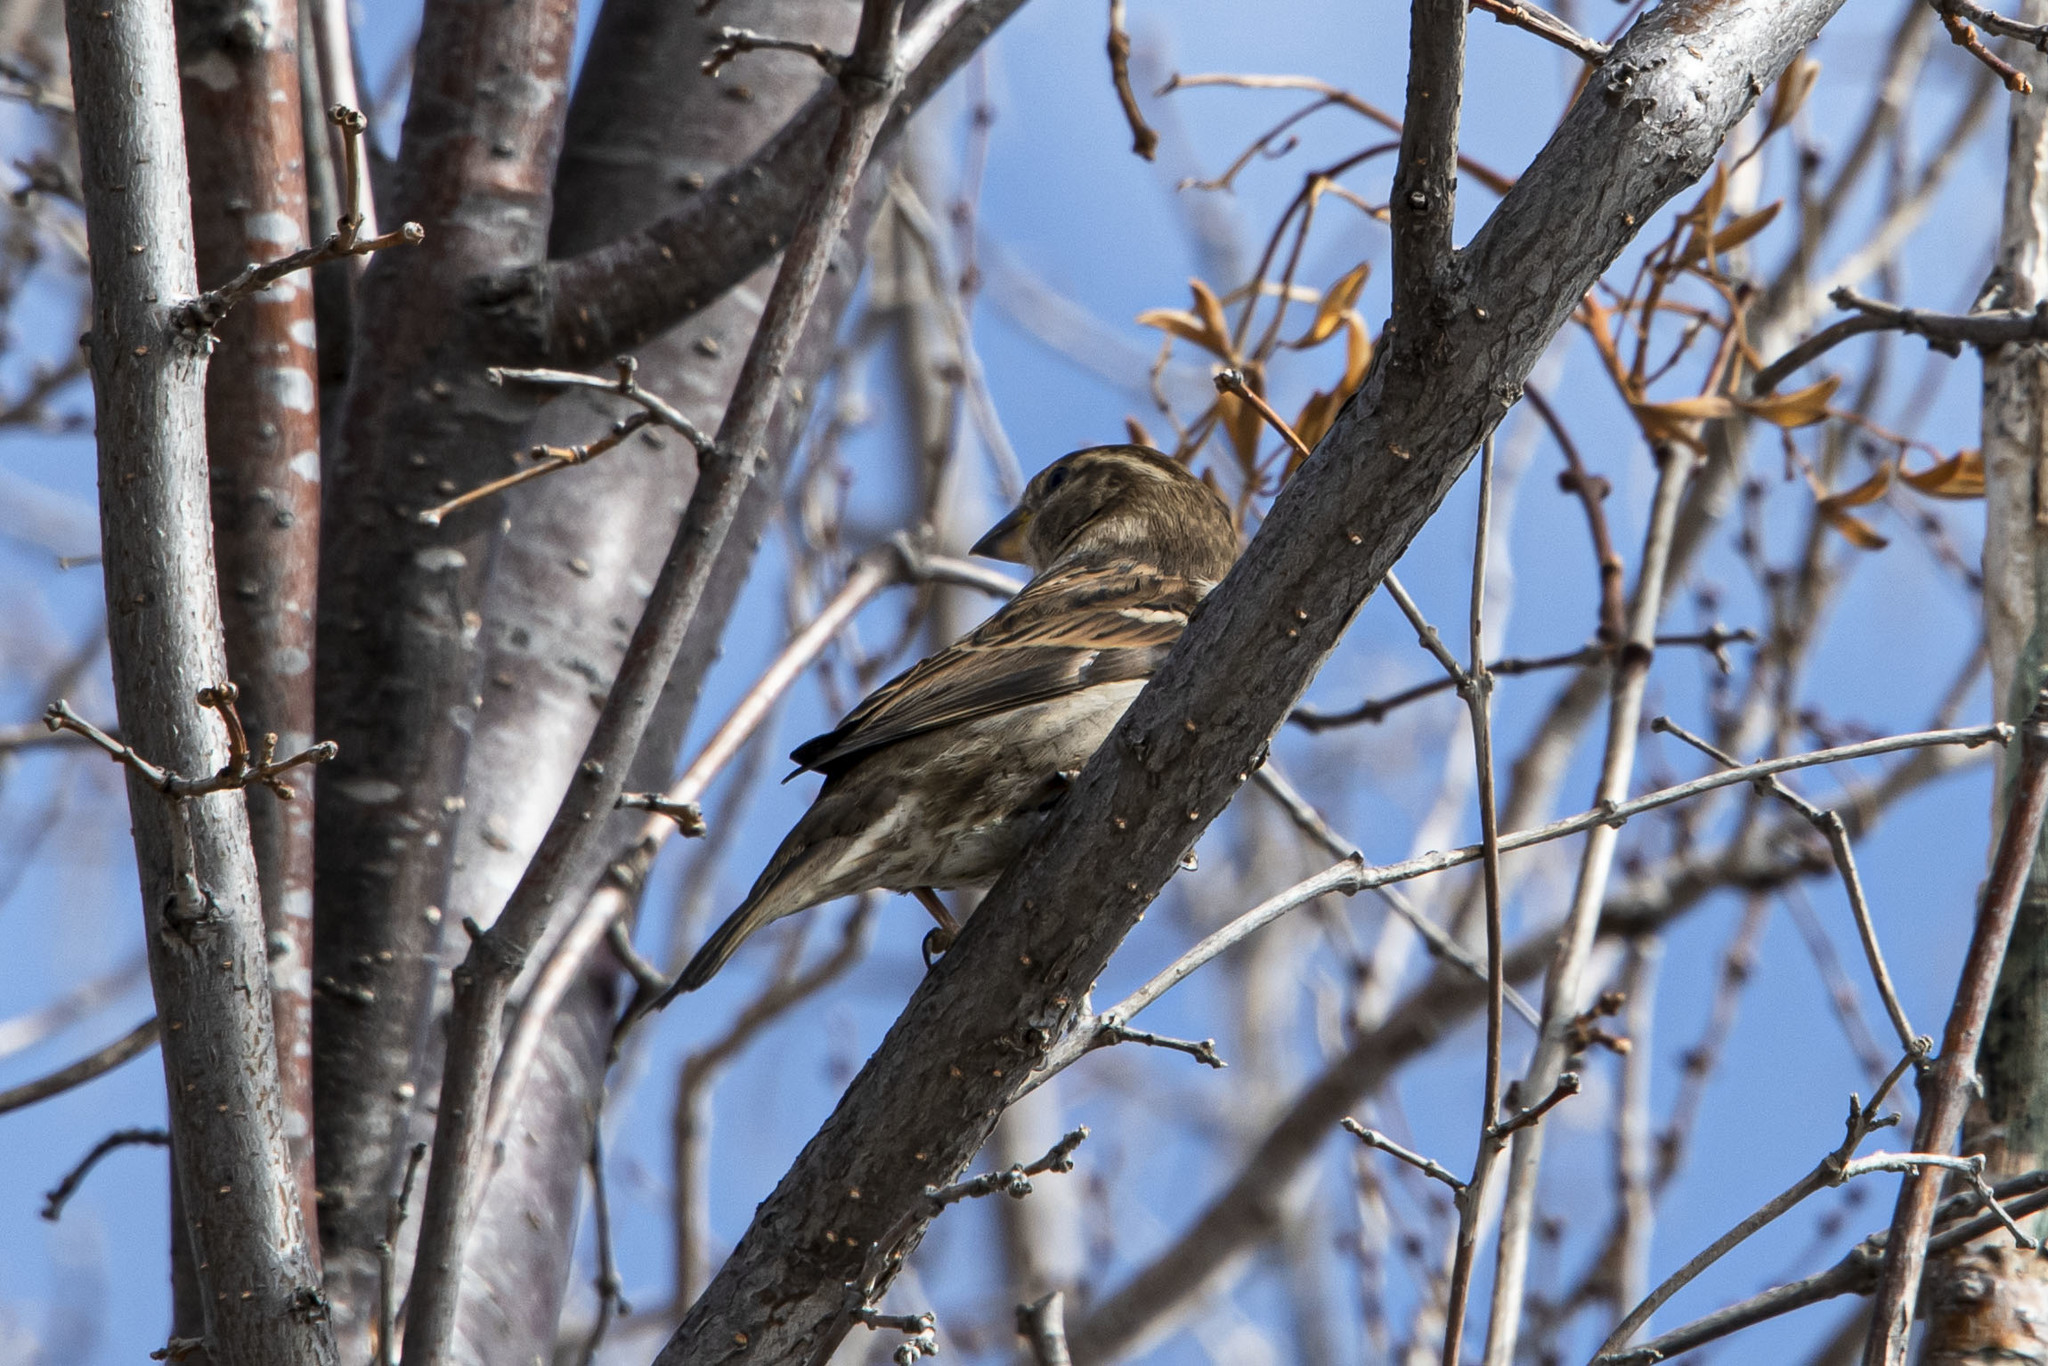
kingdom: Animalia
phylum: Chordata
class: Aves
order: Passeriformes
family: Passeridae
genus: Passer
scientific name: Passer domesticus
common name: House sparrow
